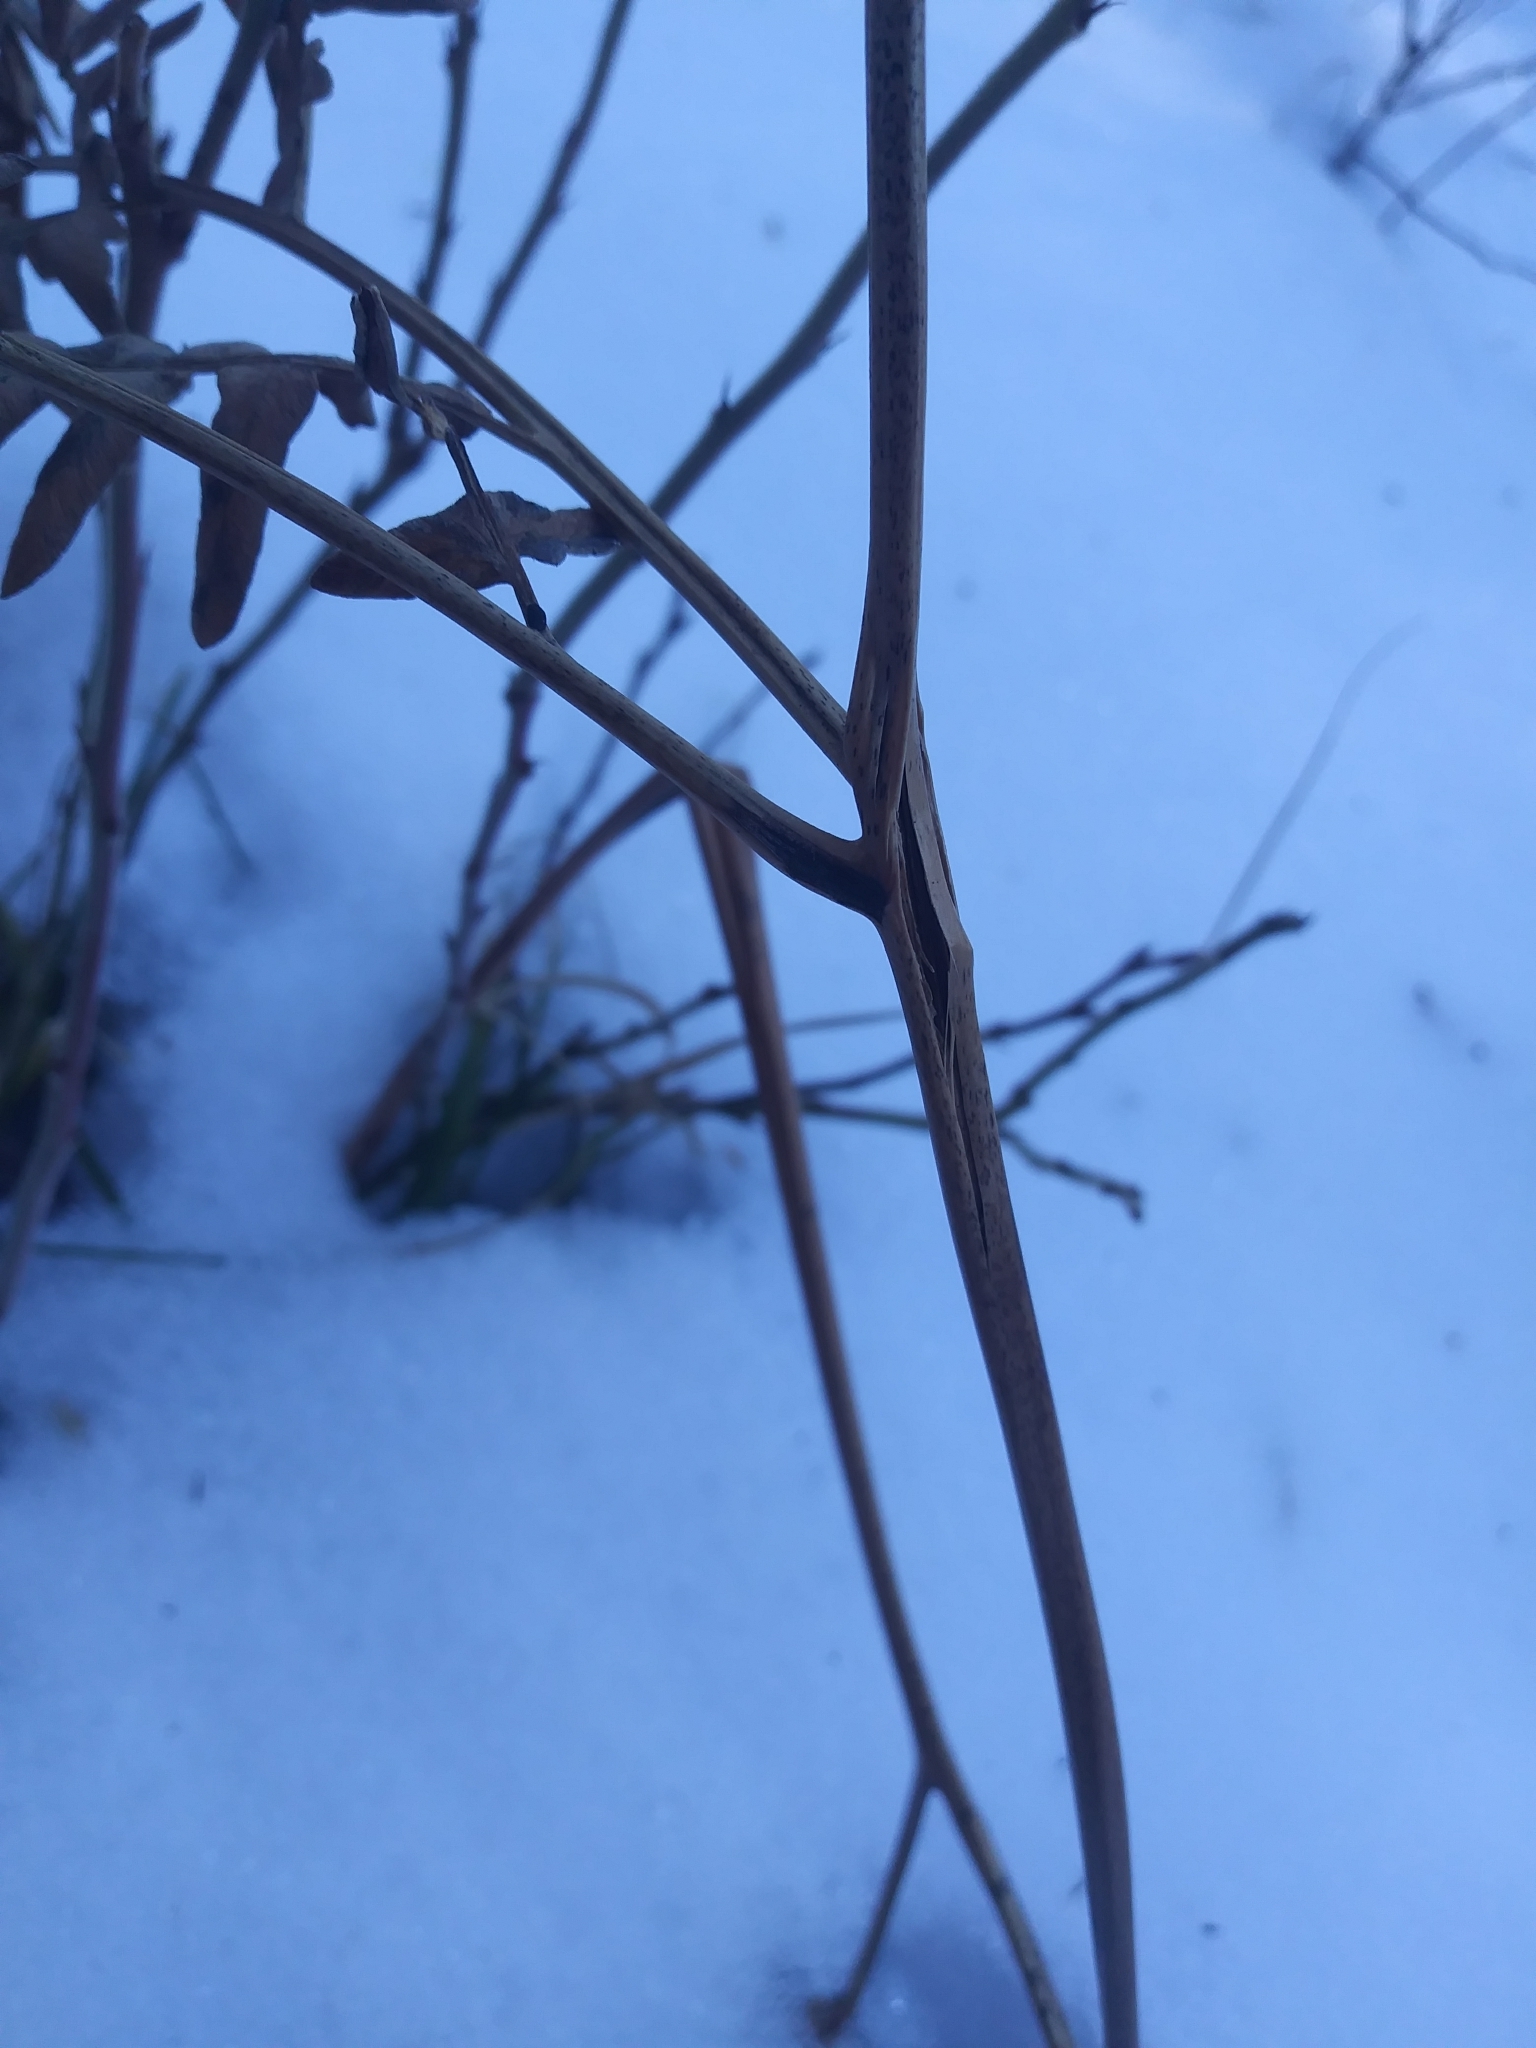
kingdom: Plantae
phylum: Tracheophyta
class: Polypodiopsida
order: Polypodiales
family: Dennstaedtiaceae
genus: Pteridium
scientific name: Pteridium aquilinum
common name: Bracken
